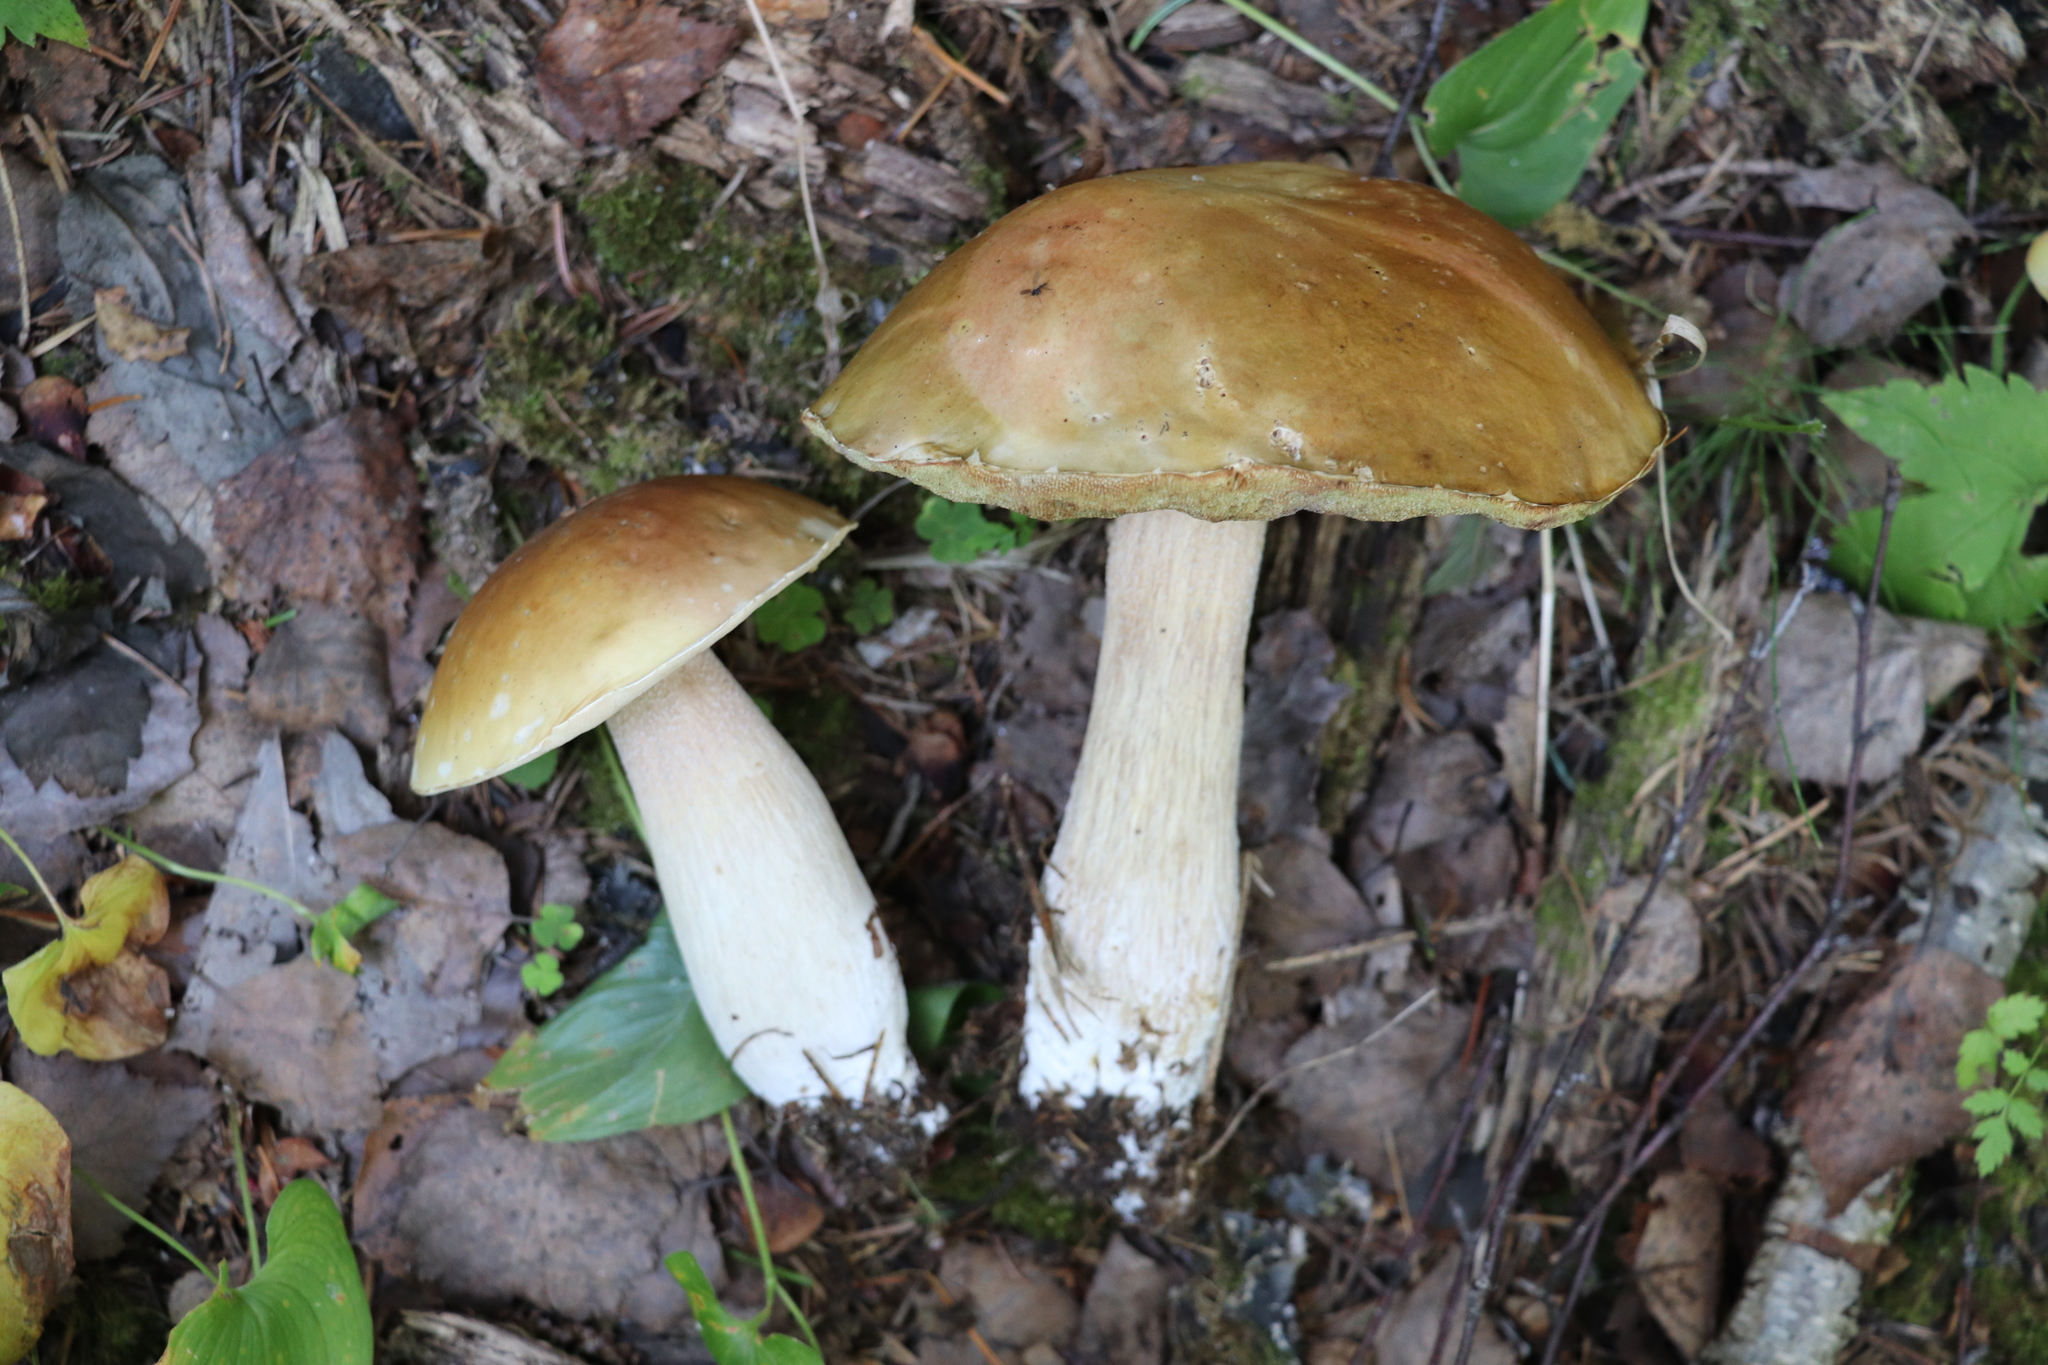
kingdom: Fungi
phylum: Basidiomycota
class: Agaricomycetes
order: Boletales
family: Boletaceae
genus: Boletus
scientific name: Boletus edulis
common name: Cep
